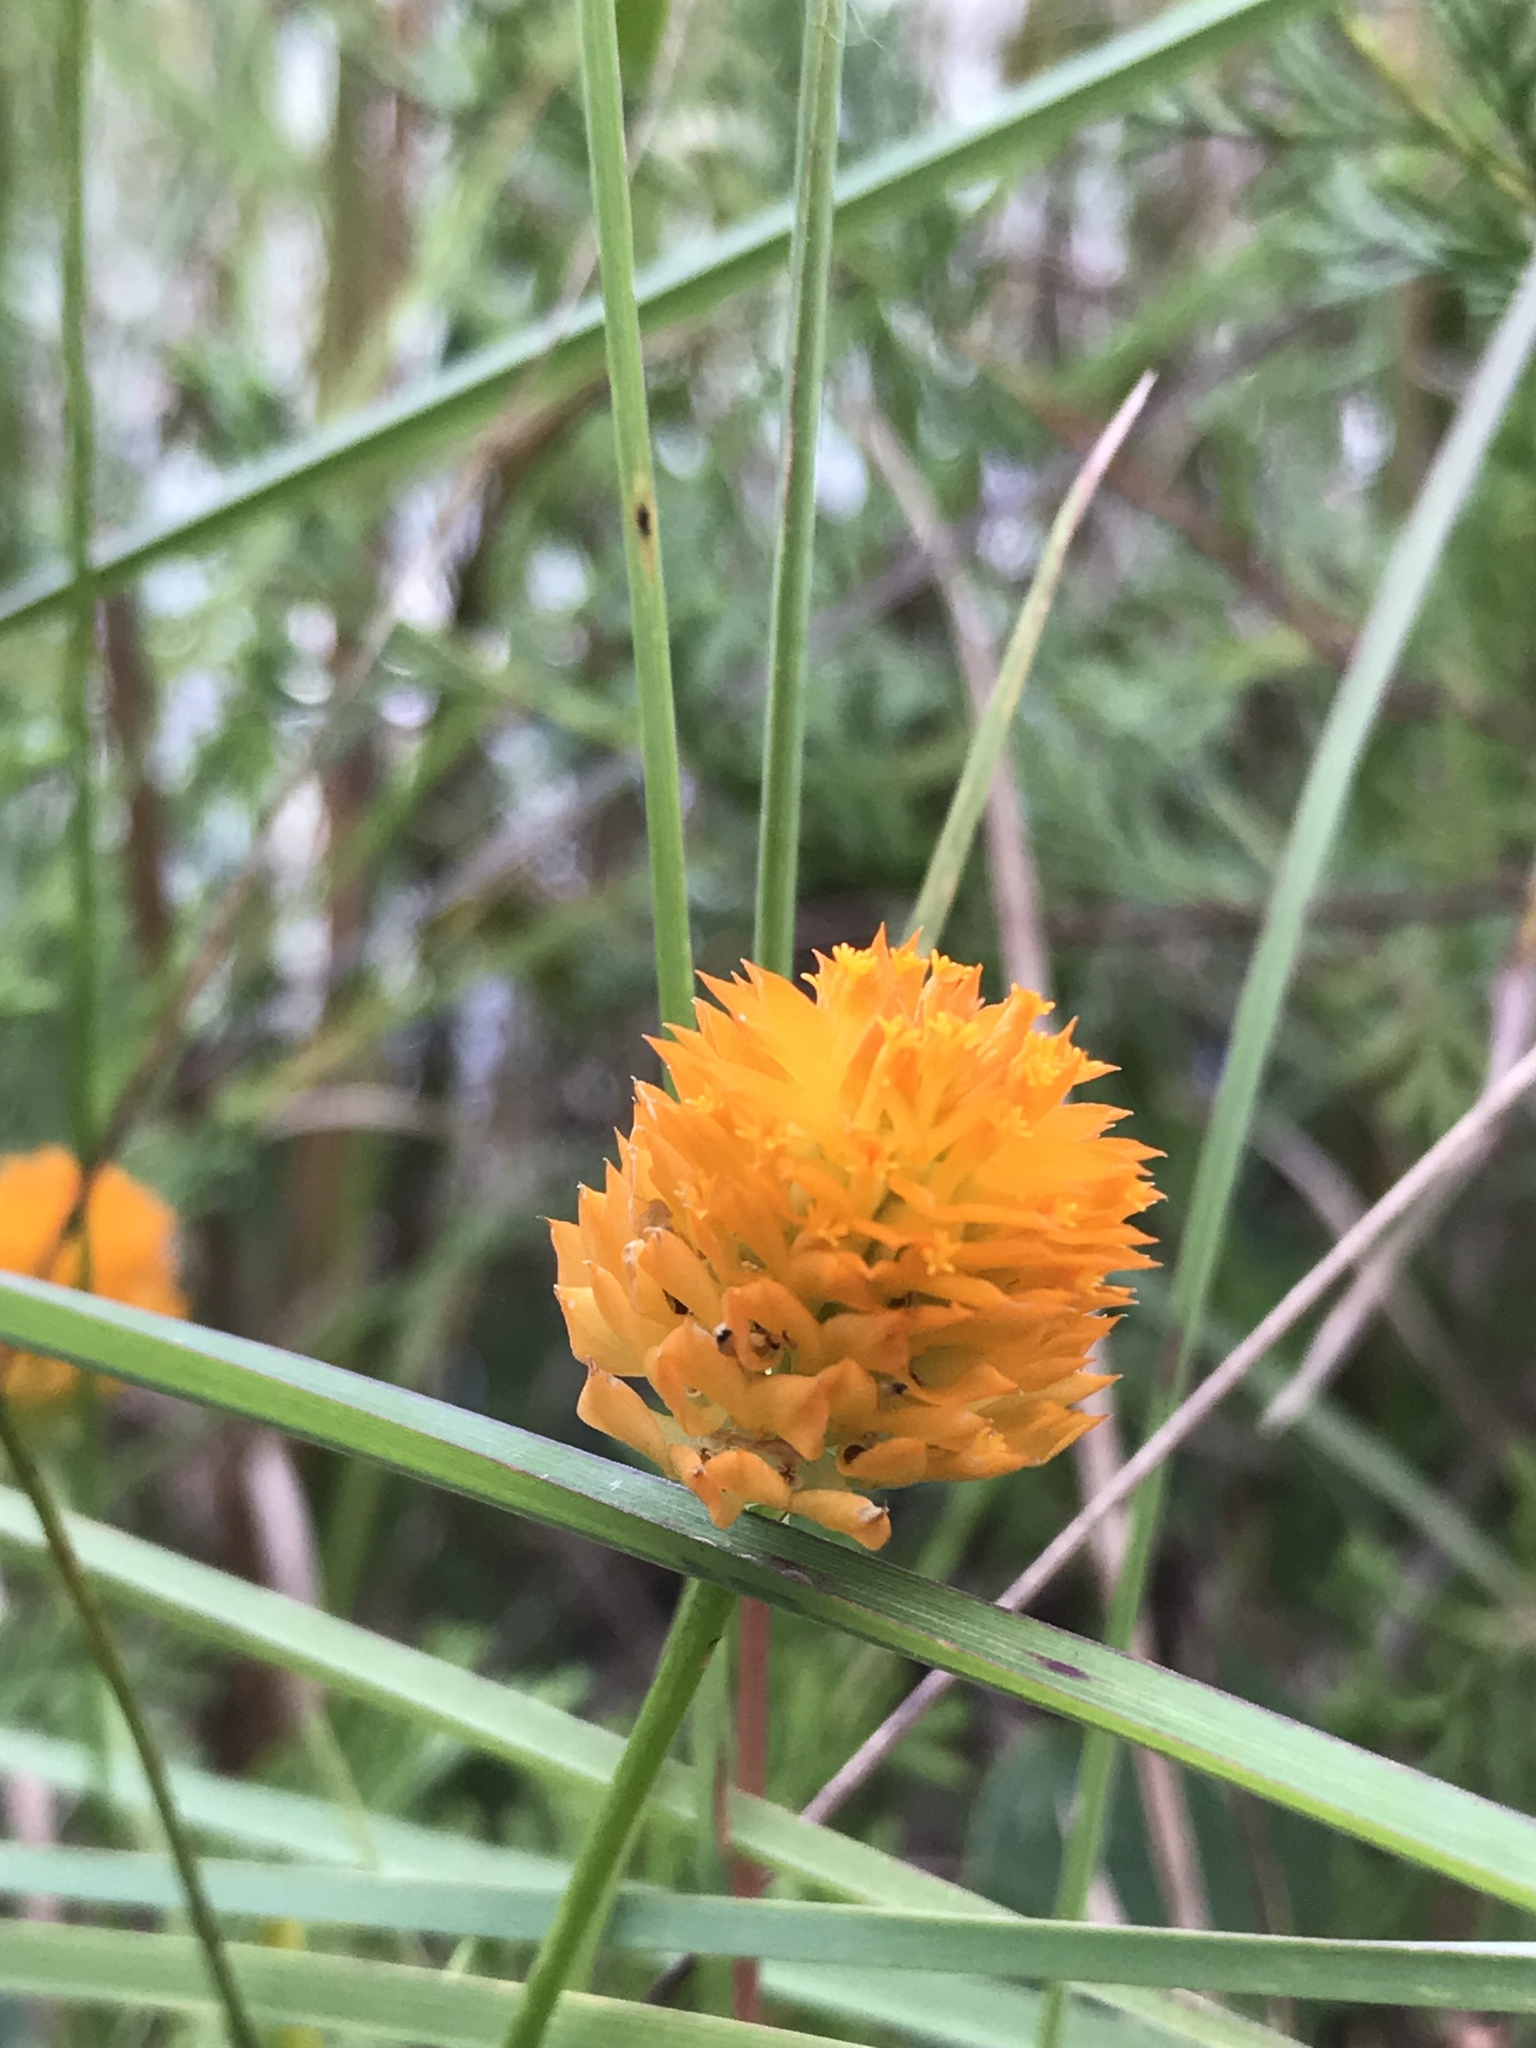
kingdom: Plantae
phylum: Tracheophyta
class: Magnoliopsida
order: Fabales
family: Polygalaceae
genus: Polygala
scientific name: Polygala lutea
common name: Orange milkwort
